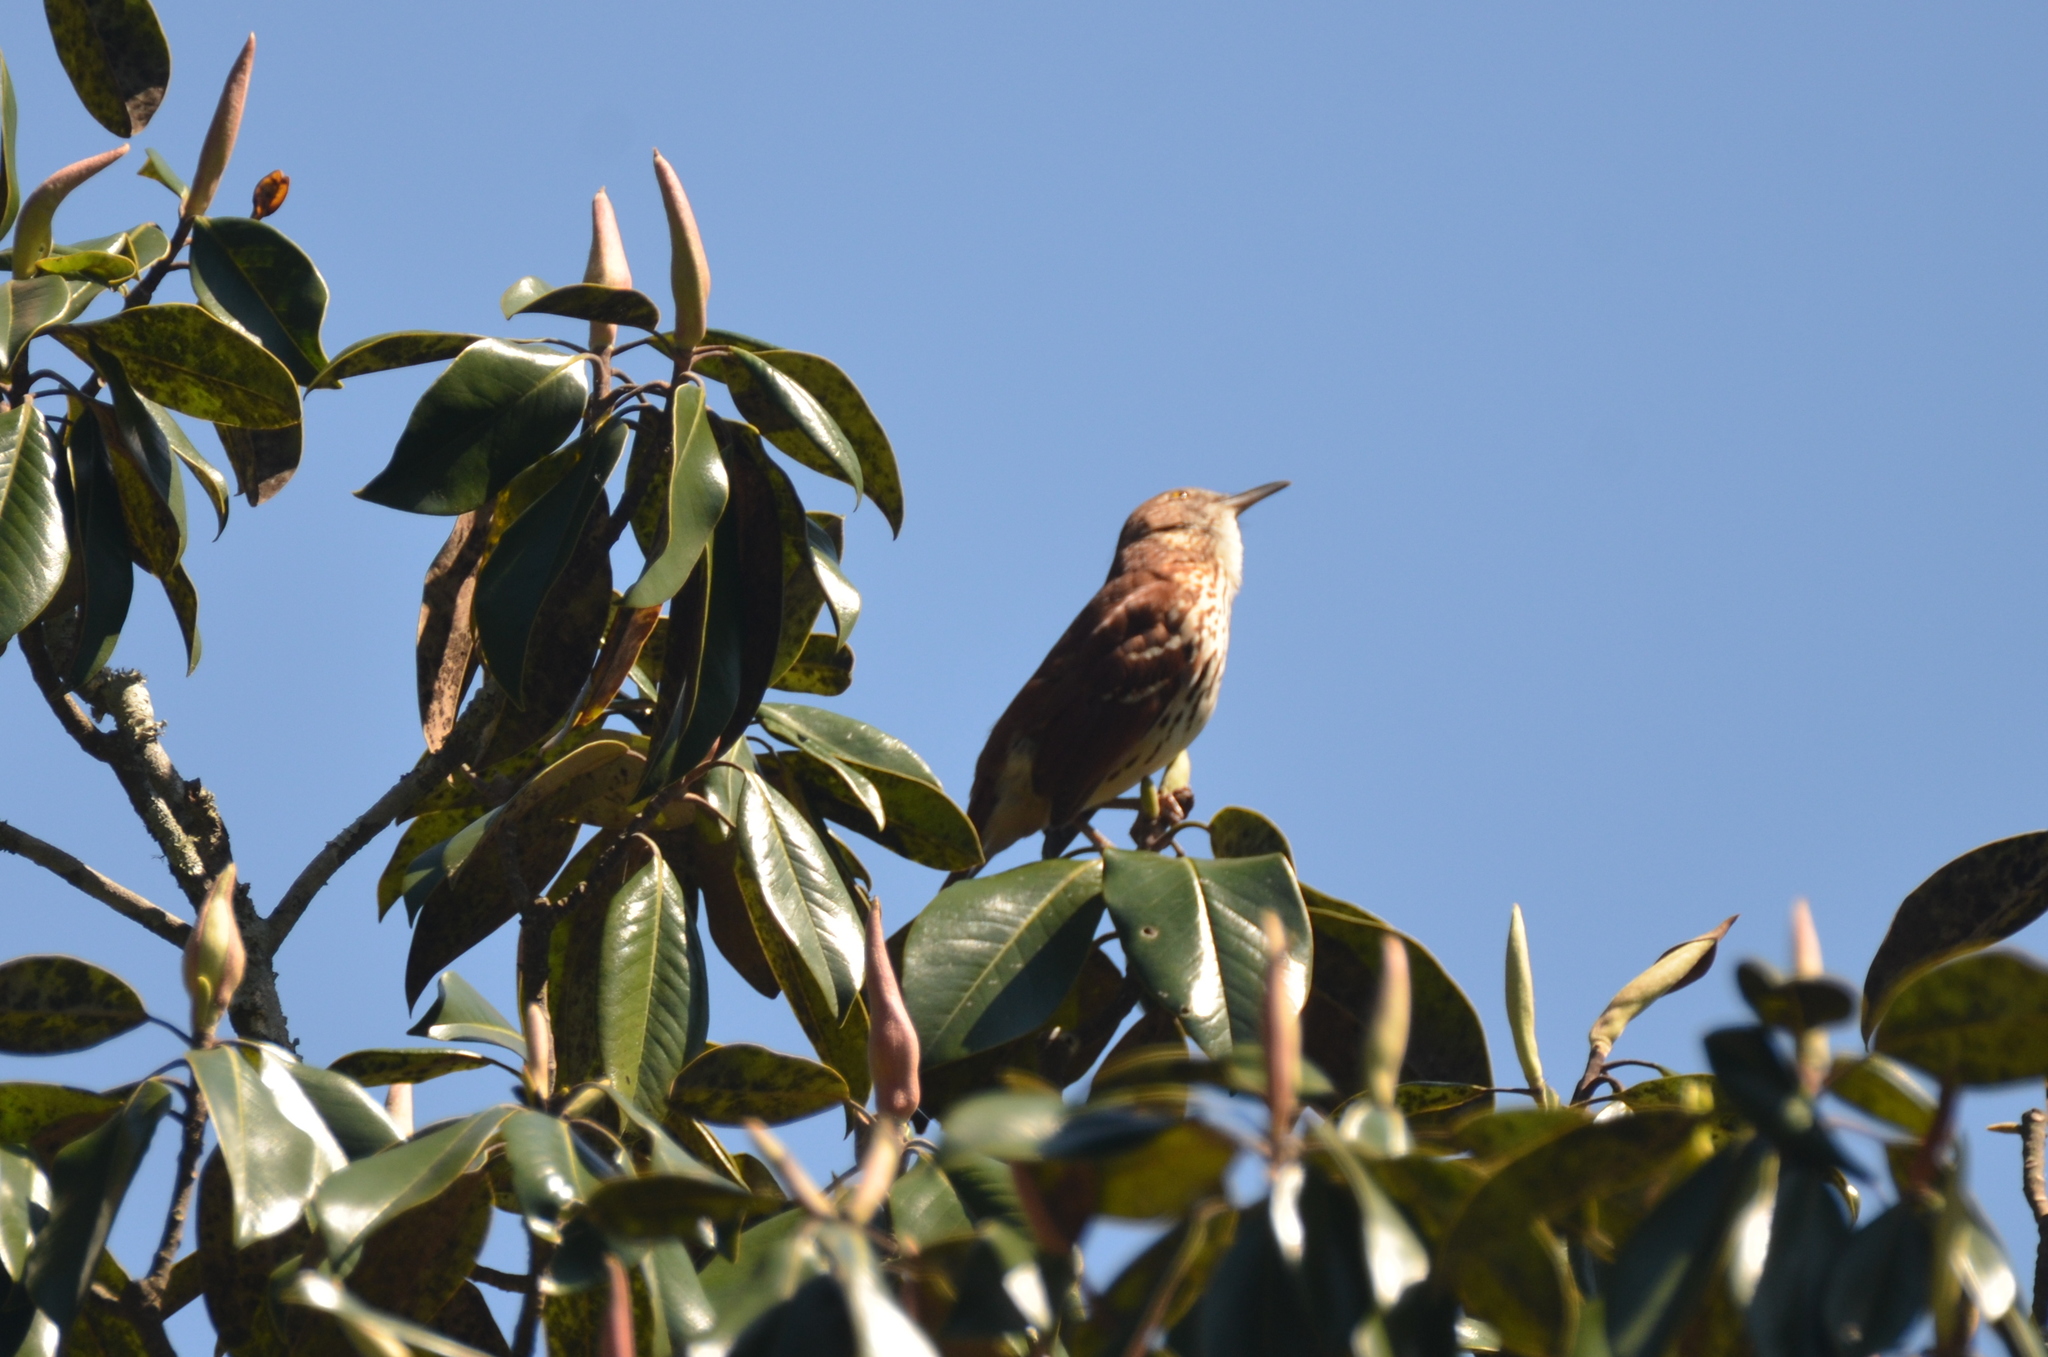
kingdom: Animalia
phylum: Chordata
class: Aves
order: Passeriformes
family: Mimidae
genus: Toxostoma
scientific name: Toxostoma rufum
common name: Brown thrasher
